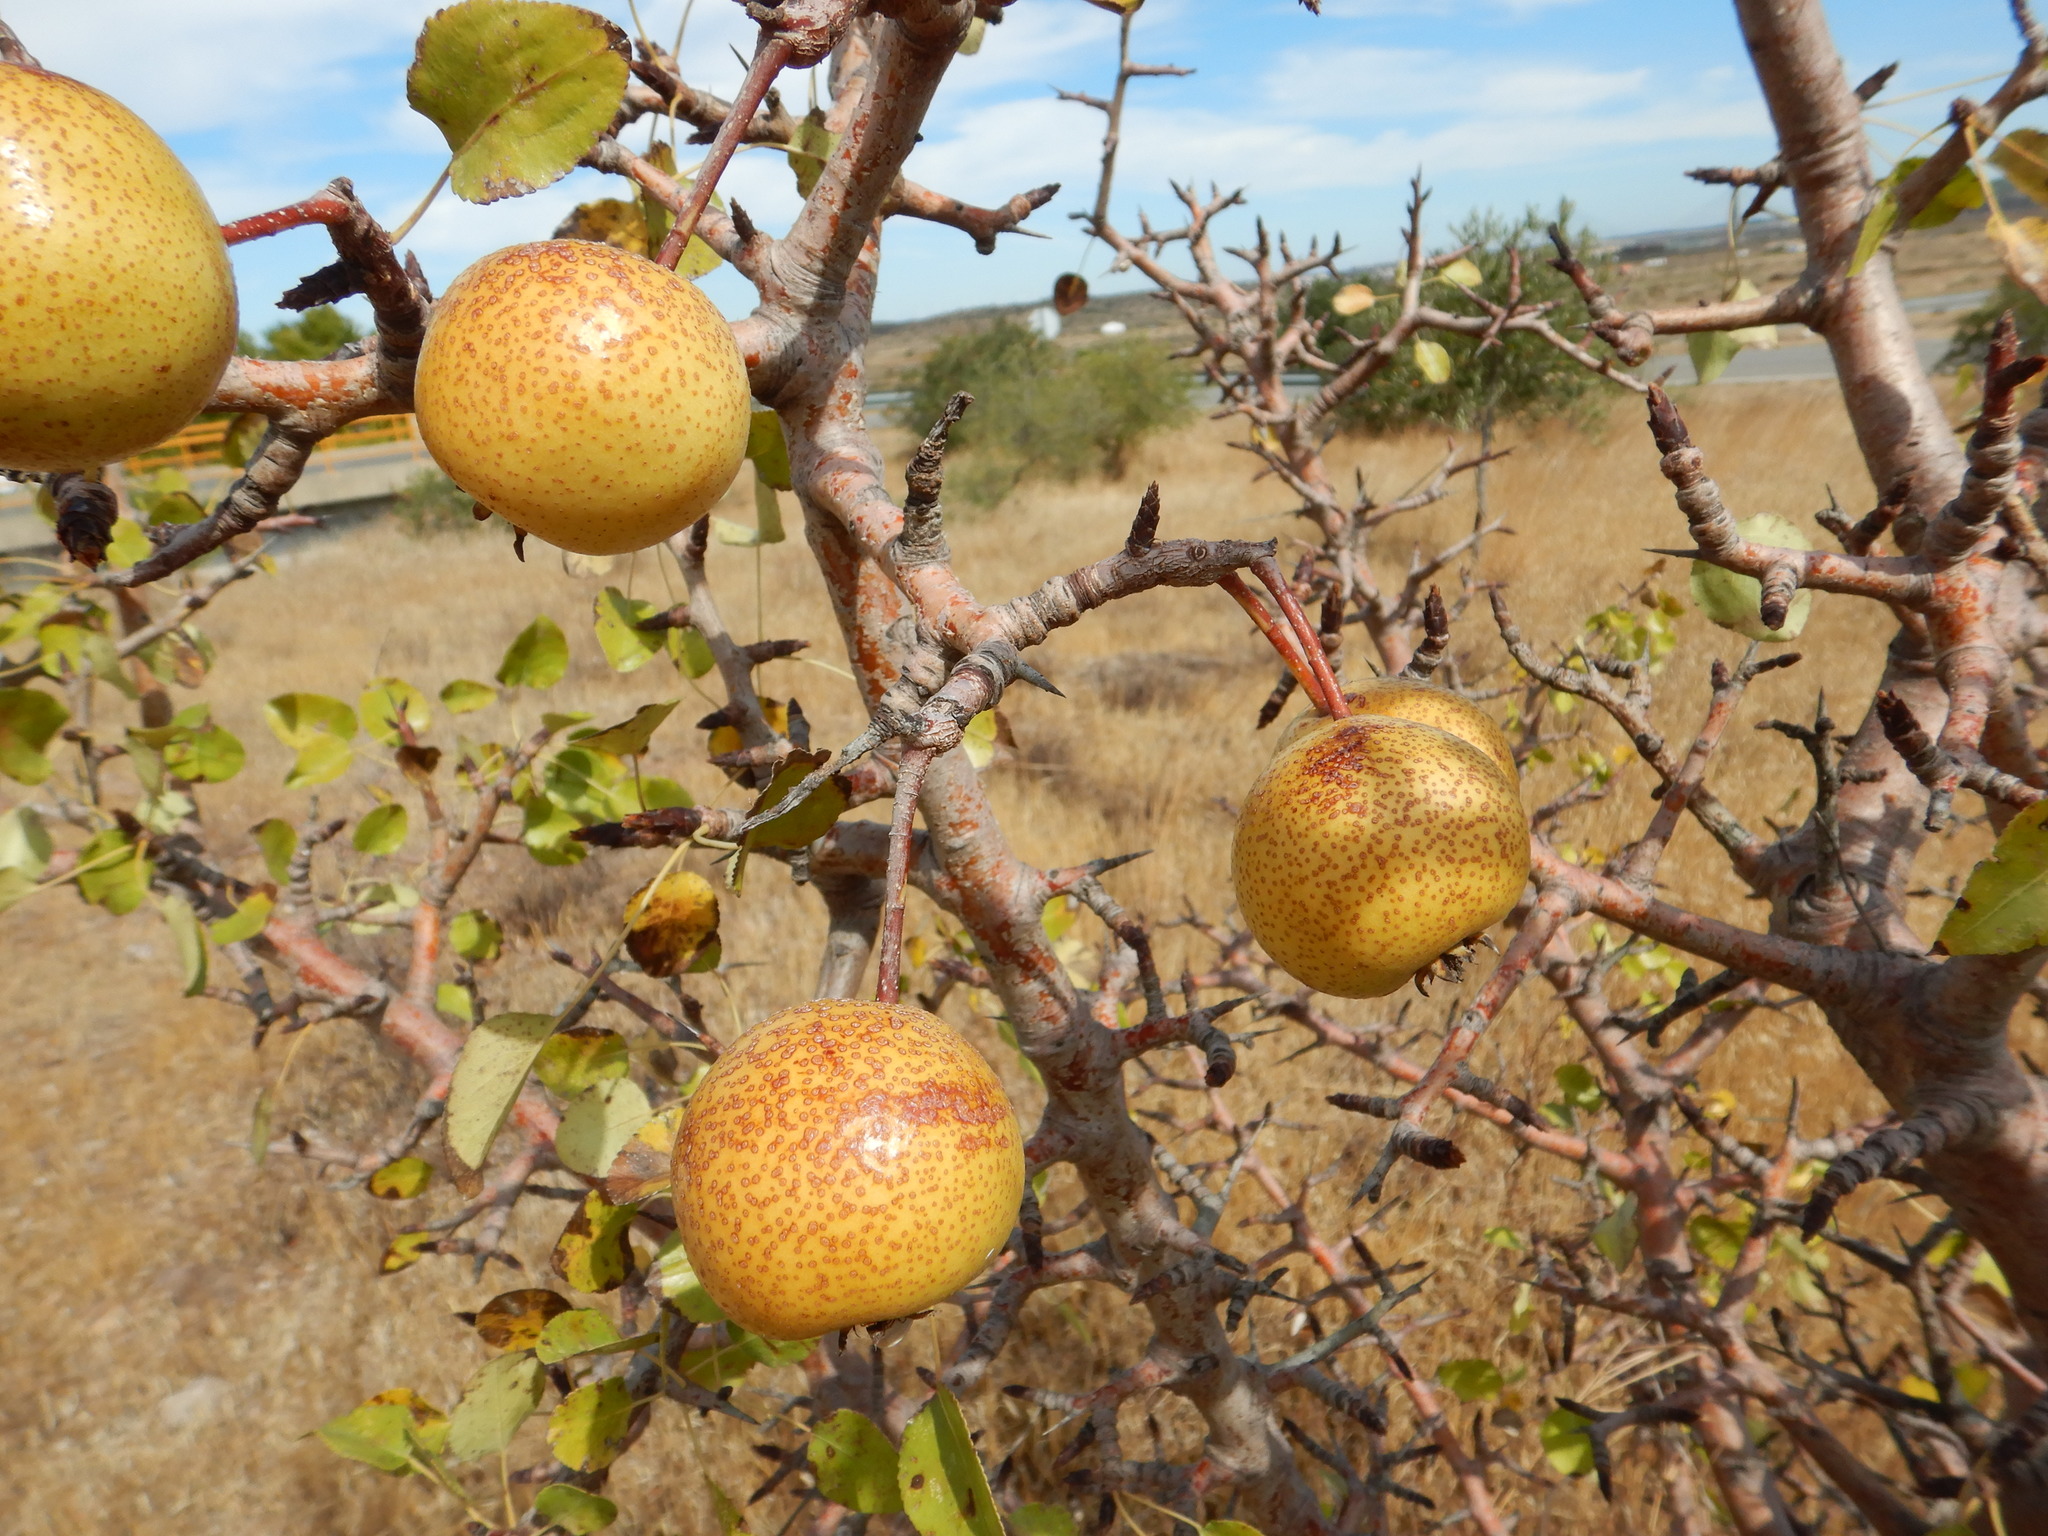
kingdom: Plantae
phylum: Tracheophyta
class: Magnoliopsida
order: Rosales
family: Rosaceae
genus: Pyrus
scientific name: Pyrus bourgaeana
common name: Iberian pear
